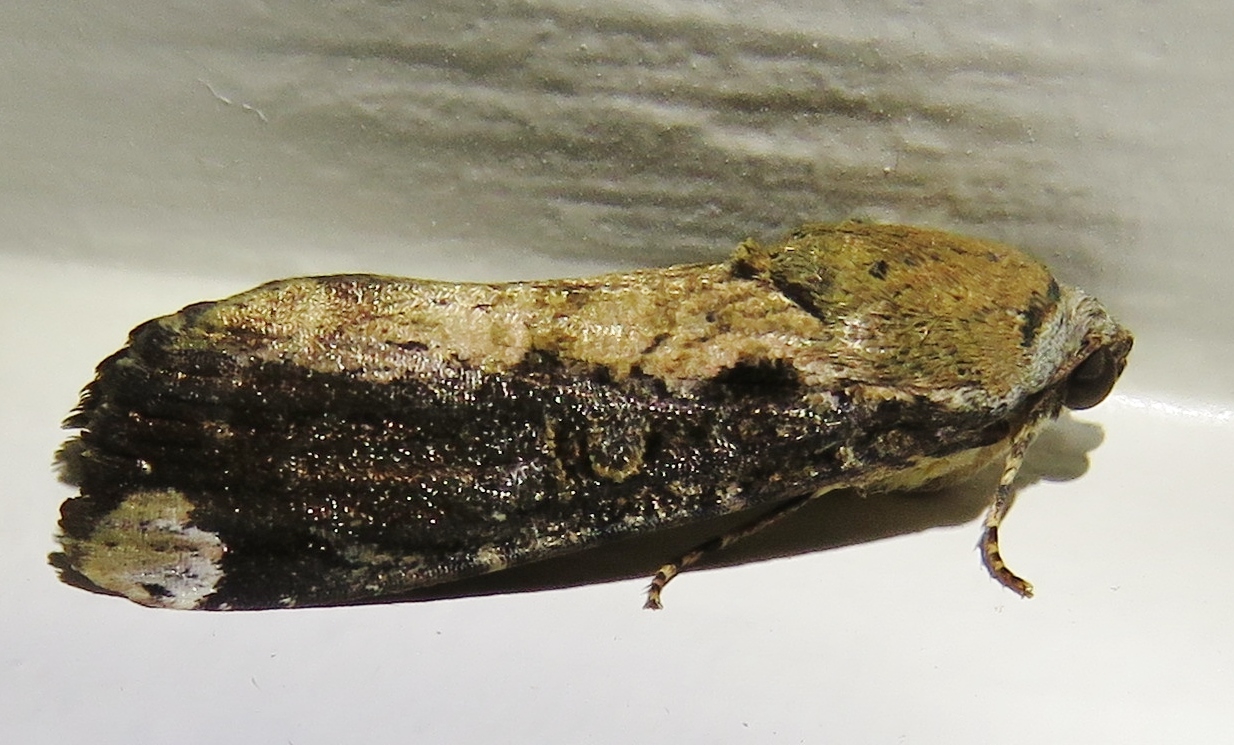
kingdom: Animalia
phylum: Arthropoda
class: Insecta
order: Lepidoptera
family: Noctuidae
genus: Magusa
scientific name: Magusa divaricata
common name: Orb narrow-winged moth
